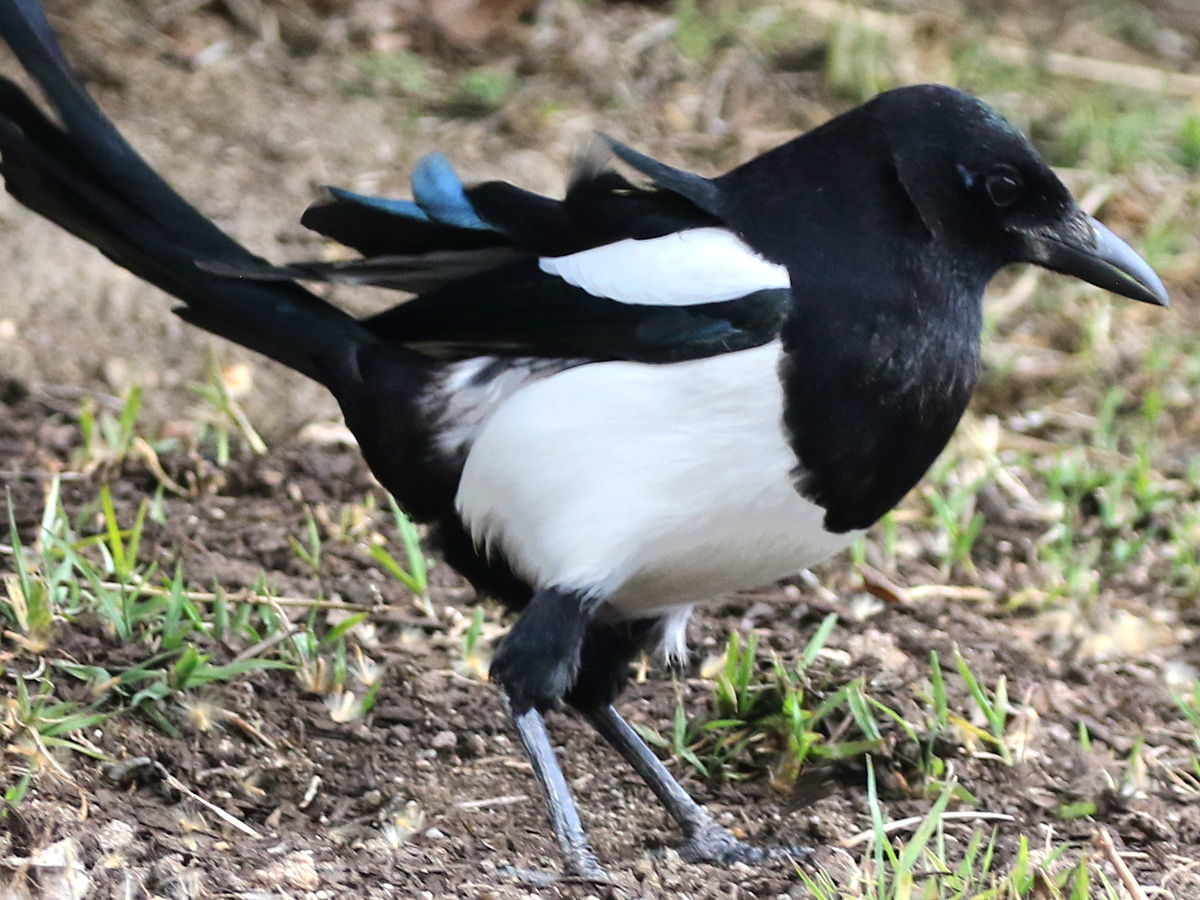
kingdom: Animalia
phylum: Chordata
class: Aves
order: Passeriformes
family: Corvidae
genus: Pica
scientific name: Pica pica
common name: Eurasian magpie
